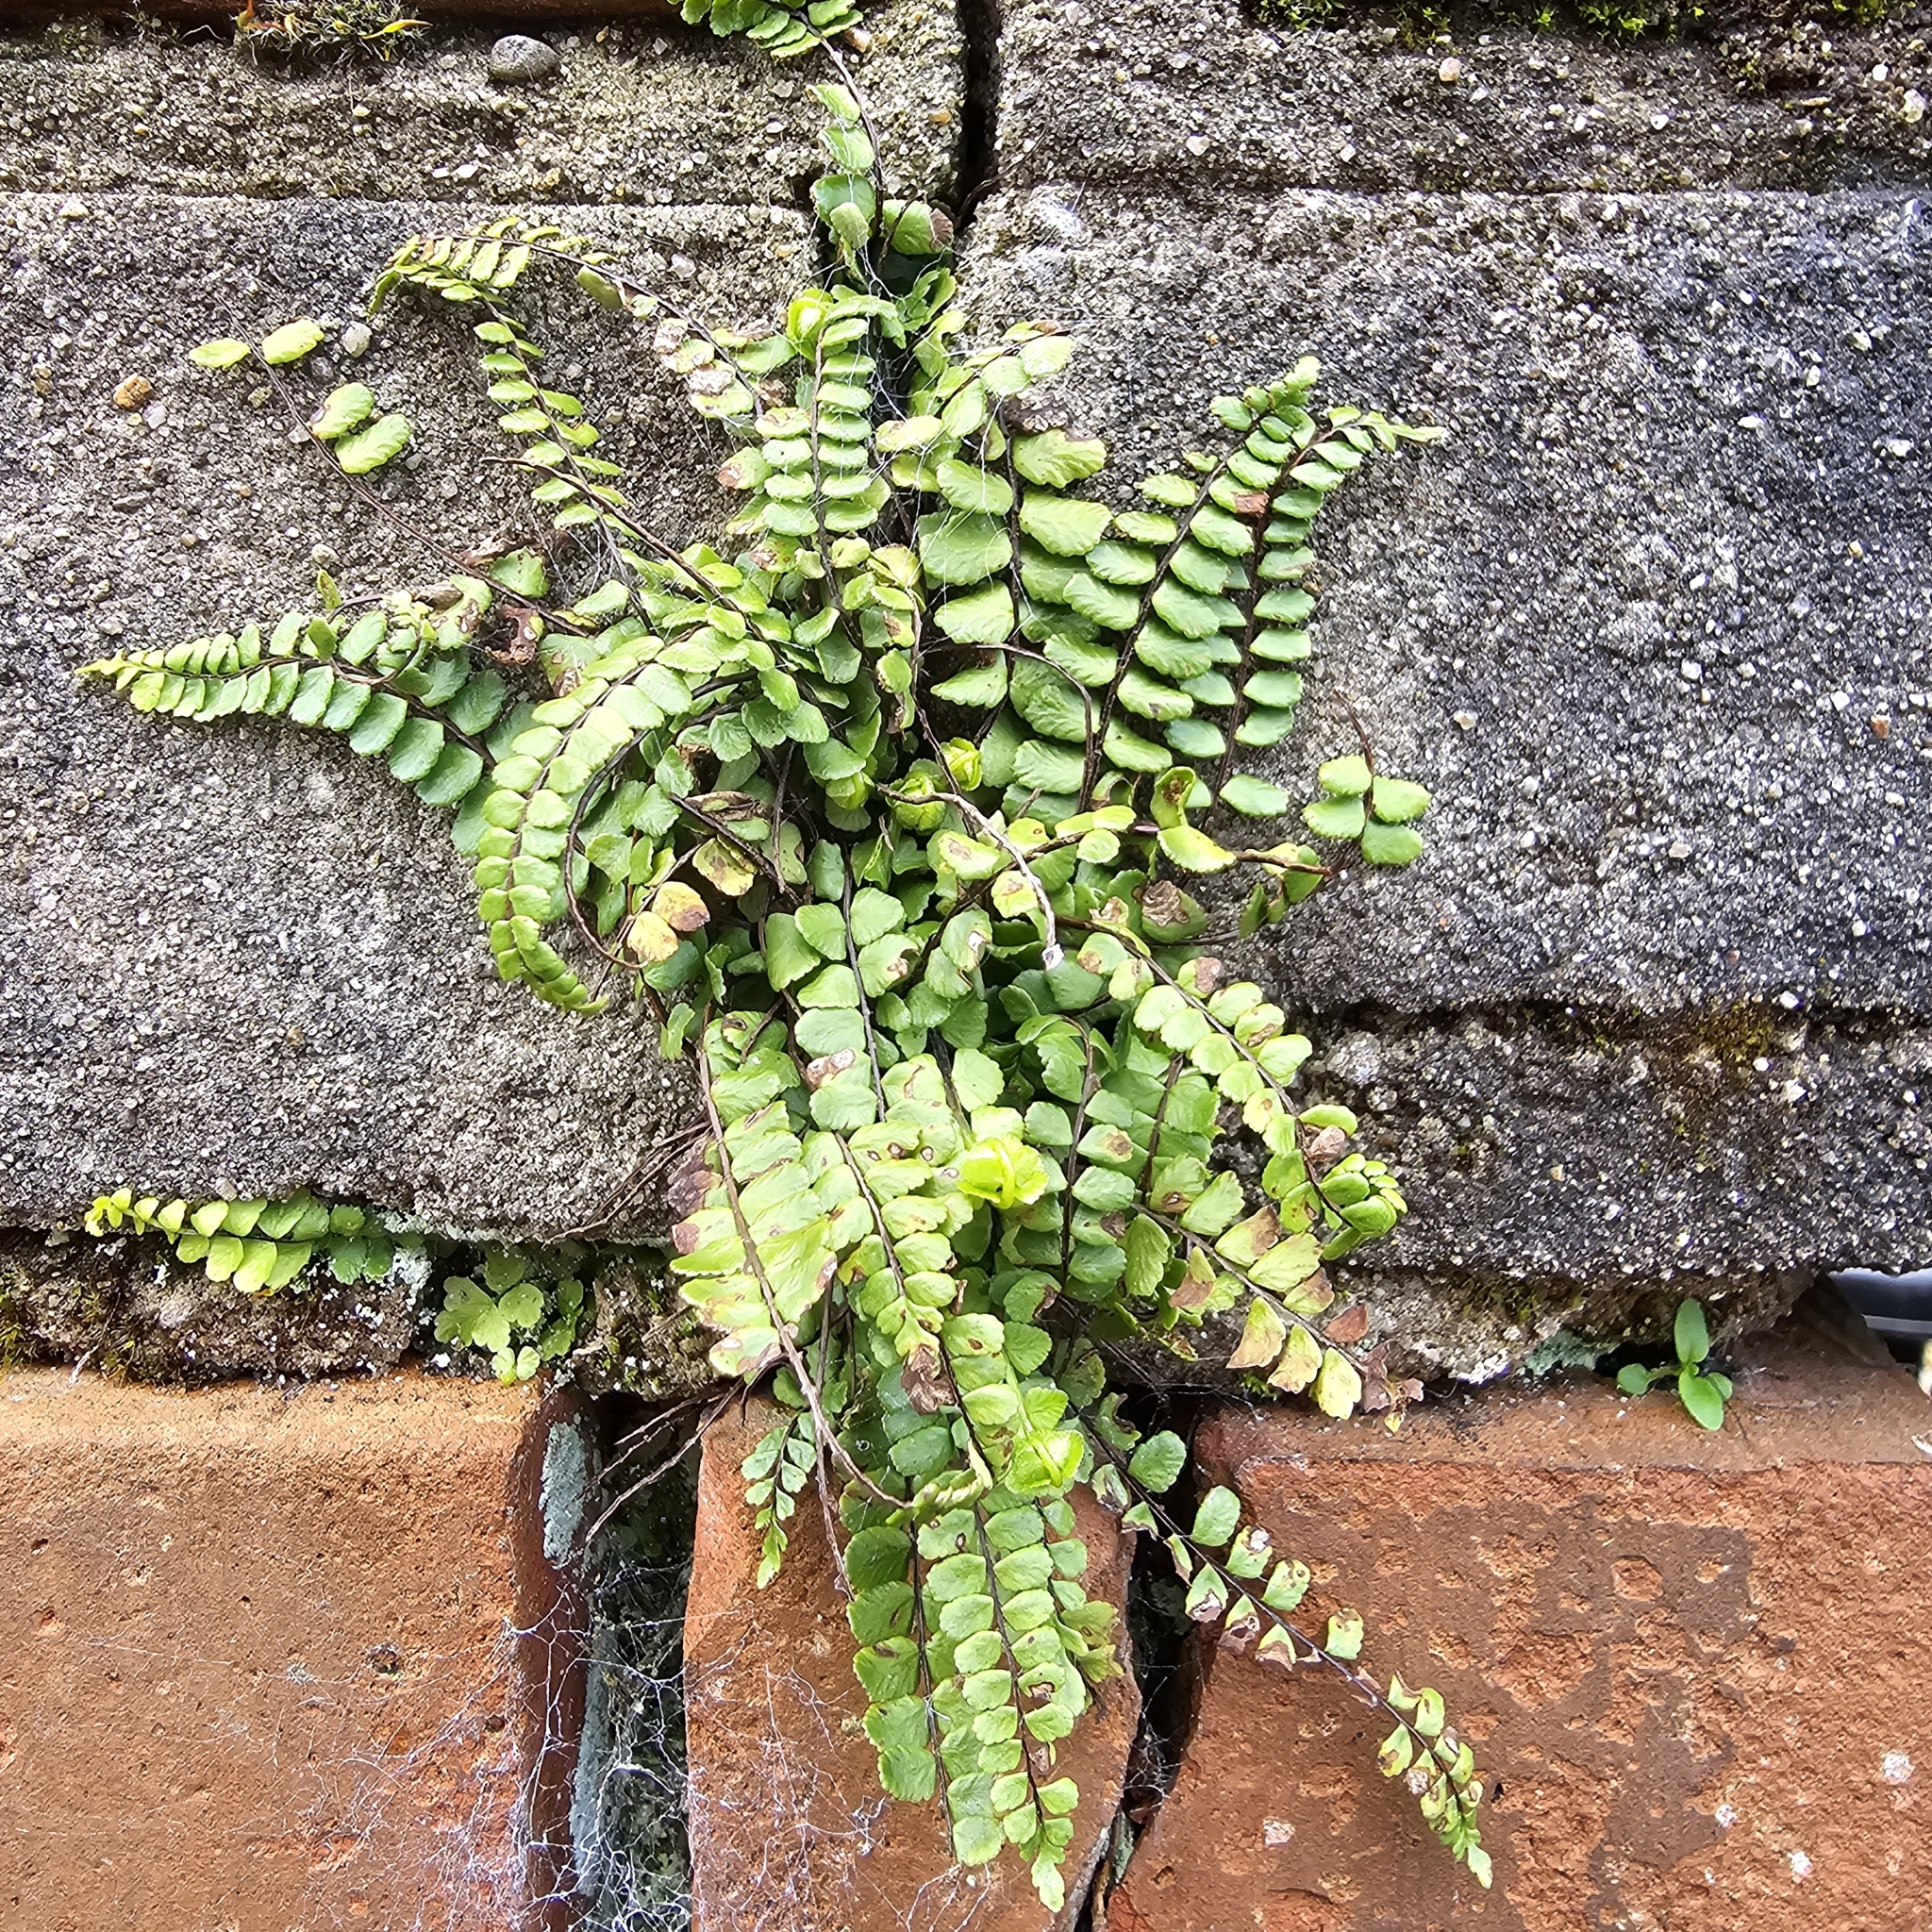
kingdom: Plantae
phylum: Tracheophyta
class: Polypodiopsida
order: Polypodiales
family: Aspleniaceae
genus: Asplenium
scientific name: Asplenium trichomanes
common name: Maidenhair spleenwort
